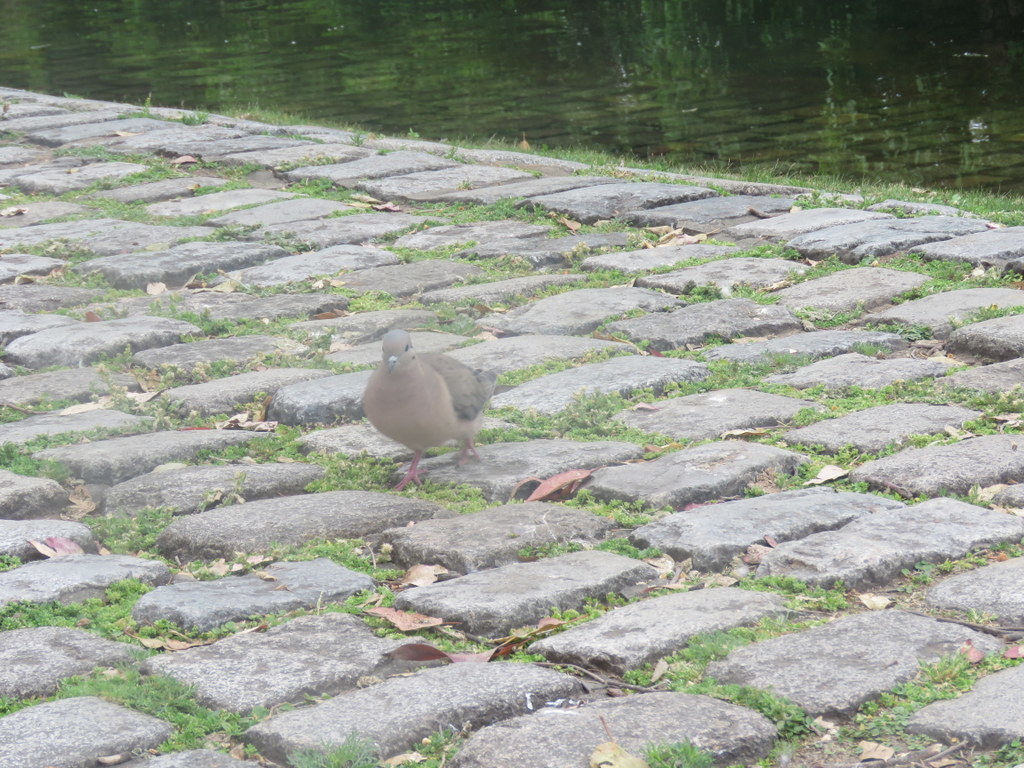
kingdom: Animalia
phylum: Chordata
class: Aves
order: Columbiformes
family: Columbidae
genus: Zenaida
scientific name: Zenaida auriculata
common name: Eared dove
